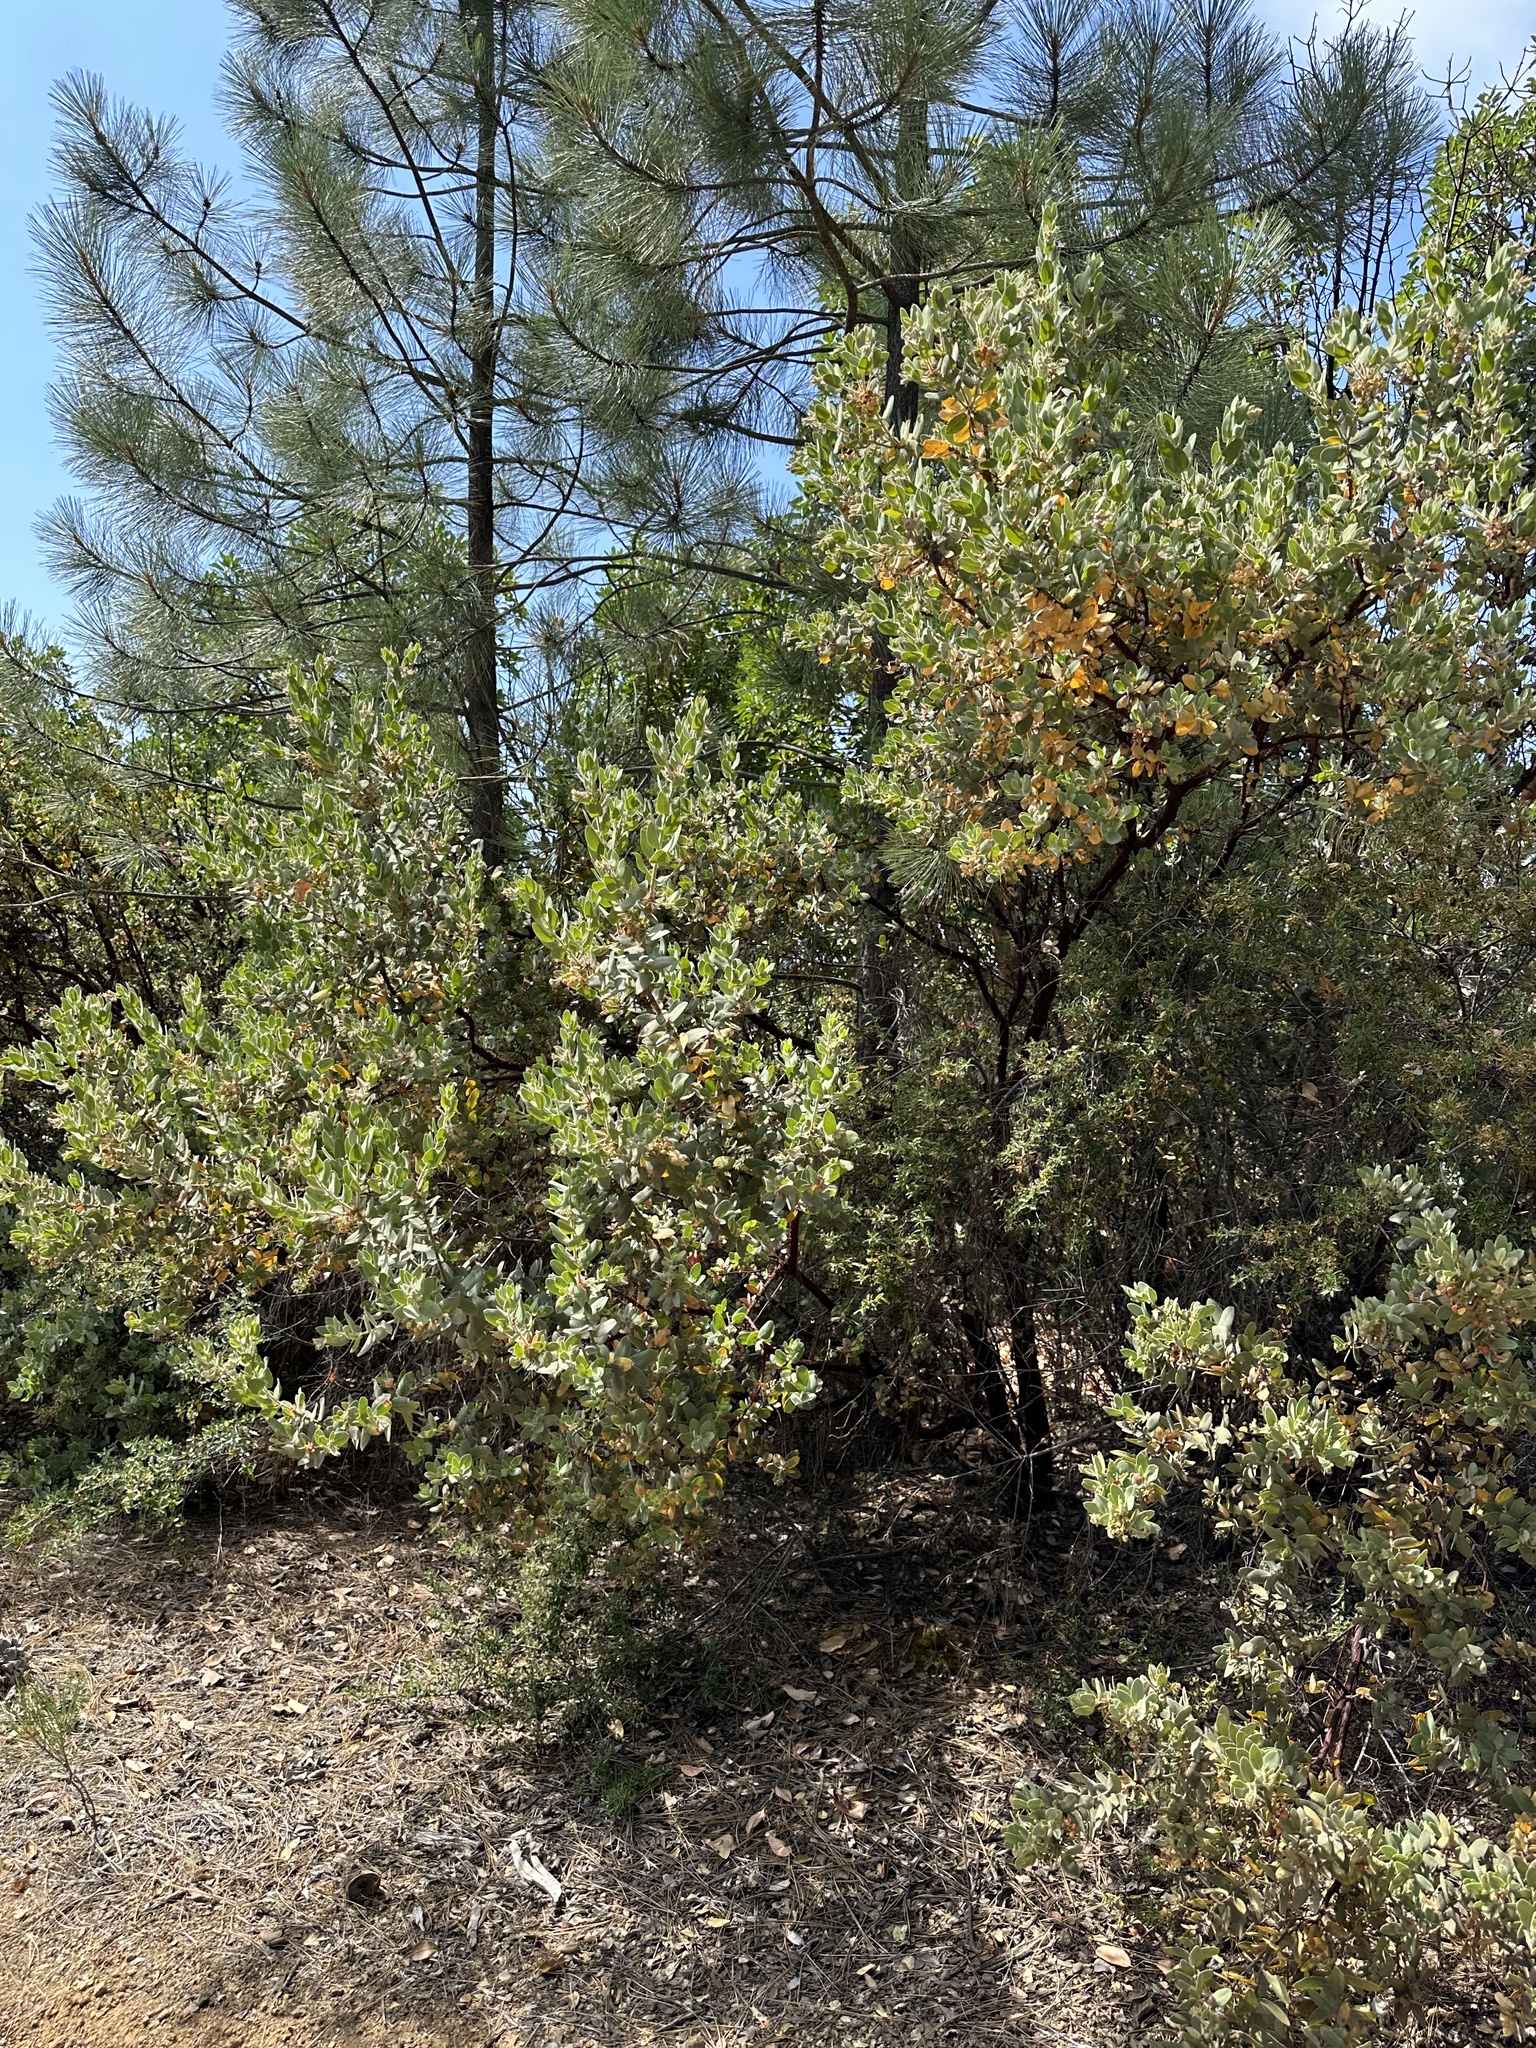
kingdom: Plantae
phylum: Tracheophyta
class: Magnoliopsida
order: Ericales
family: Ericaceae
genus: Arctostaphylos
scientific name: Arctostaphylos hooveri
